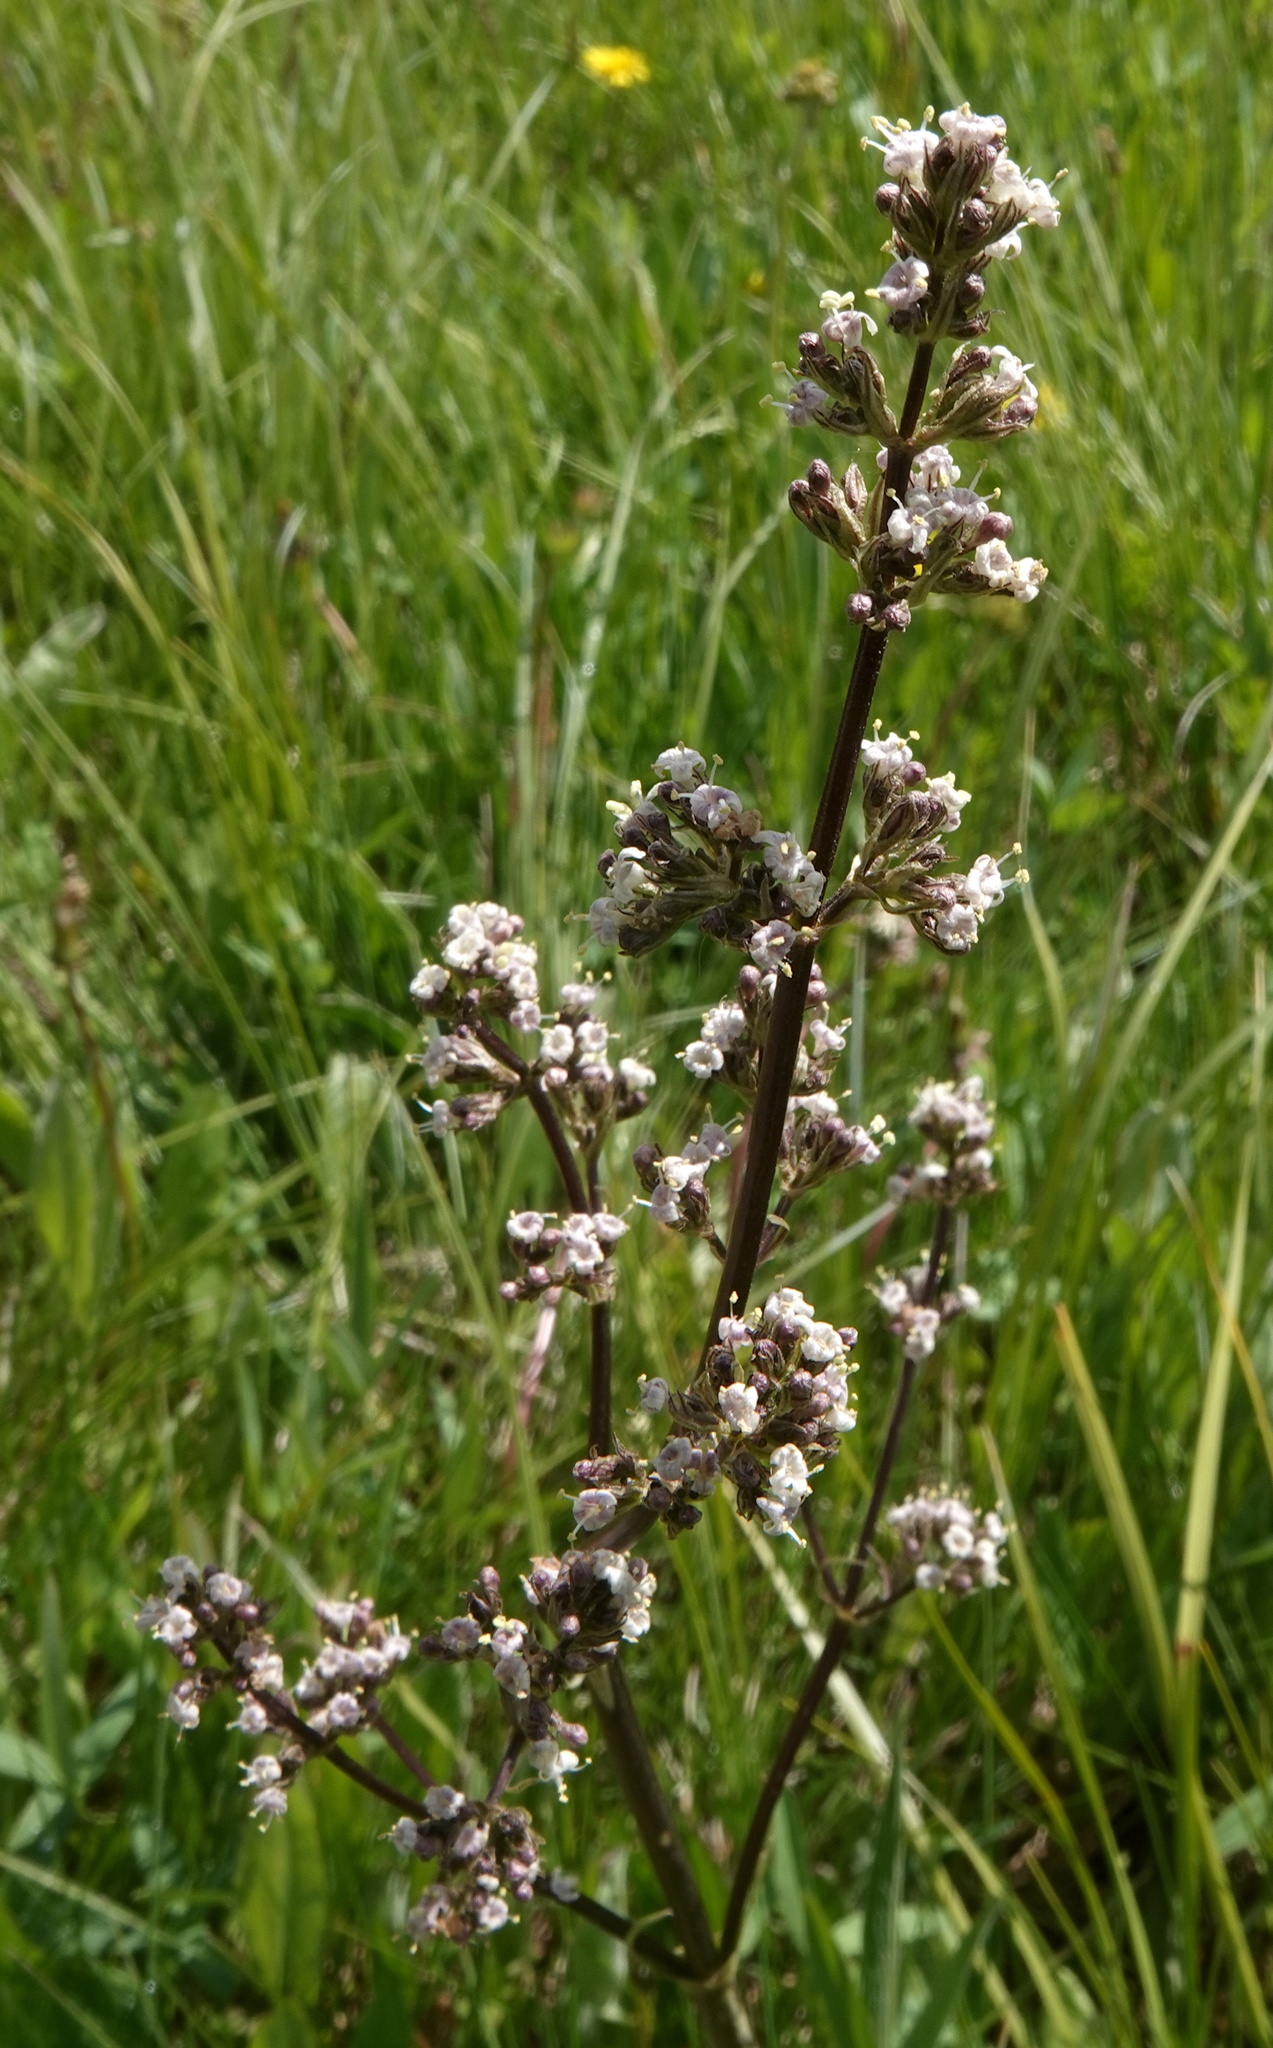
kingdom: Plantae
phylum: Tracheophyta
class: Magnoliopsida
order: Dipsacales
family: Caprifoliaceae
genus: Valeriana
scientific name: Valeriana edulis
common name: Taproot valerian
